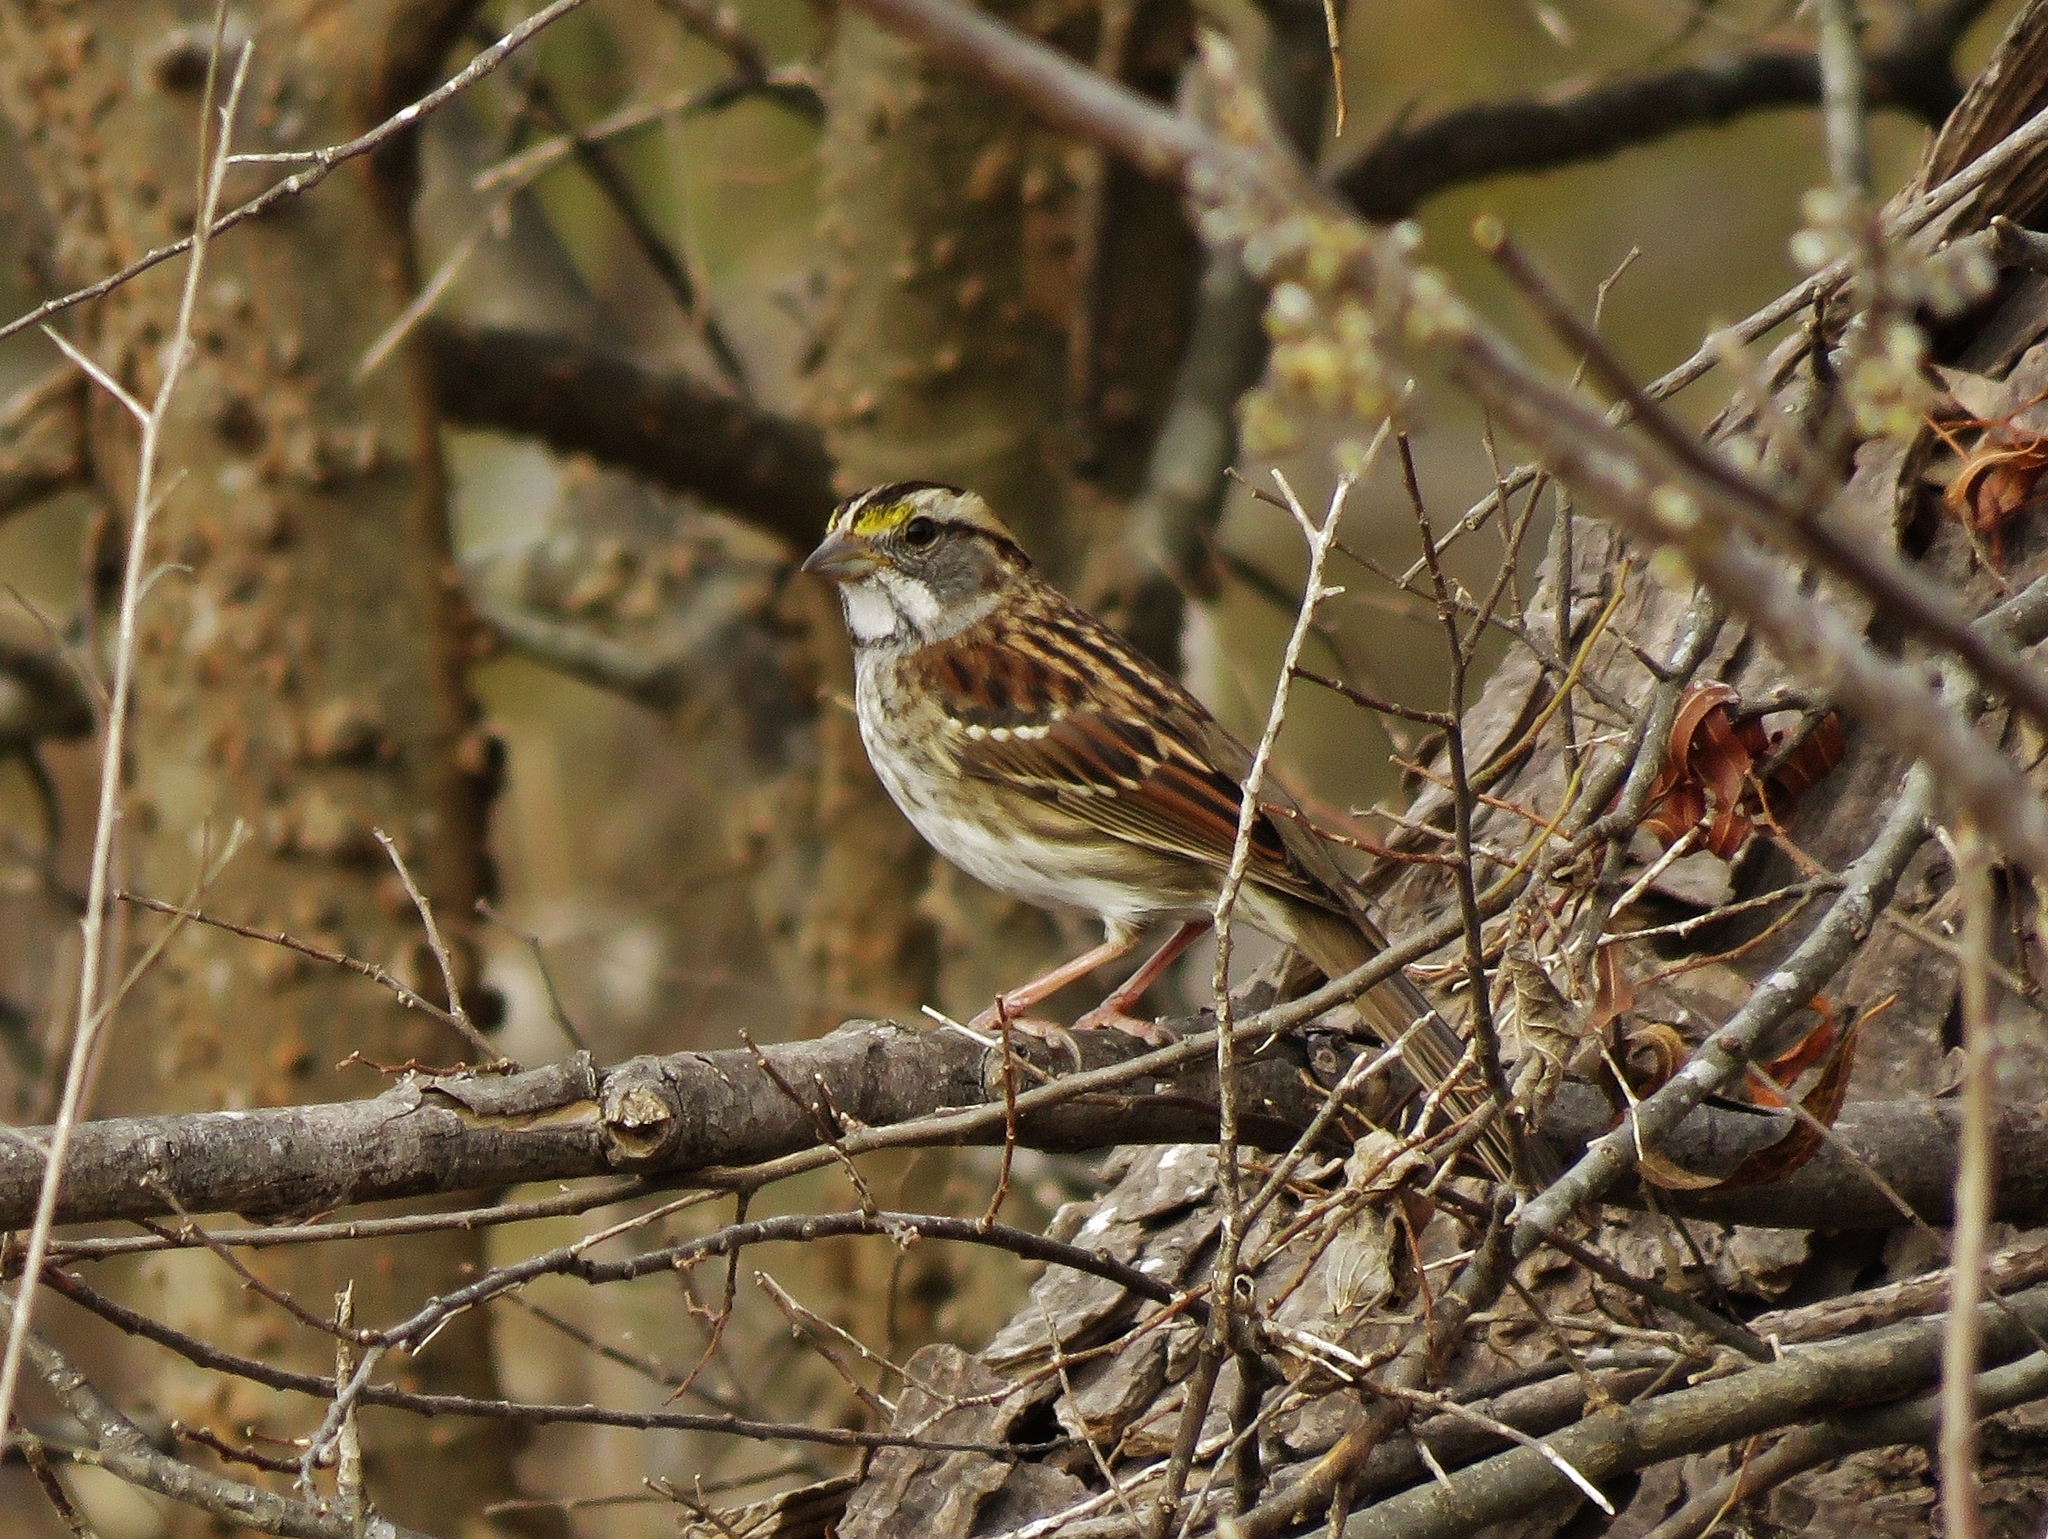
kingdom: Animalia
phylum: Chordata
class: Aves
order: Passeriformes
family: Passerellidae
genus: Zonotrichia
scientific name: Zonotrichia albicollis
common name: White-throated sparrow
